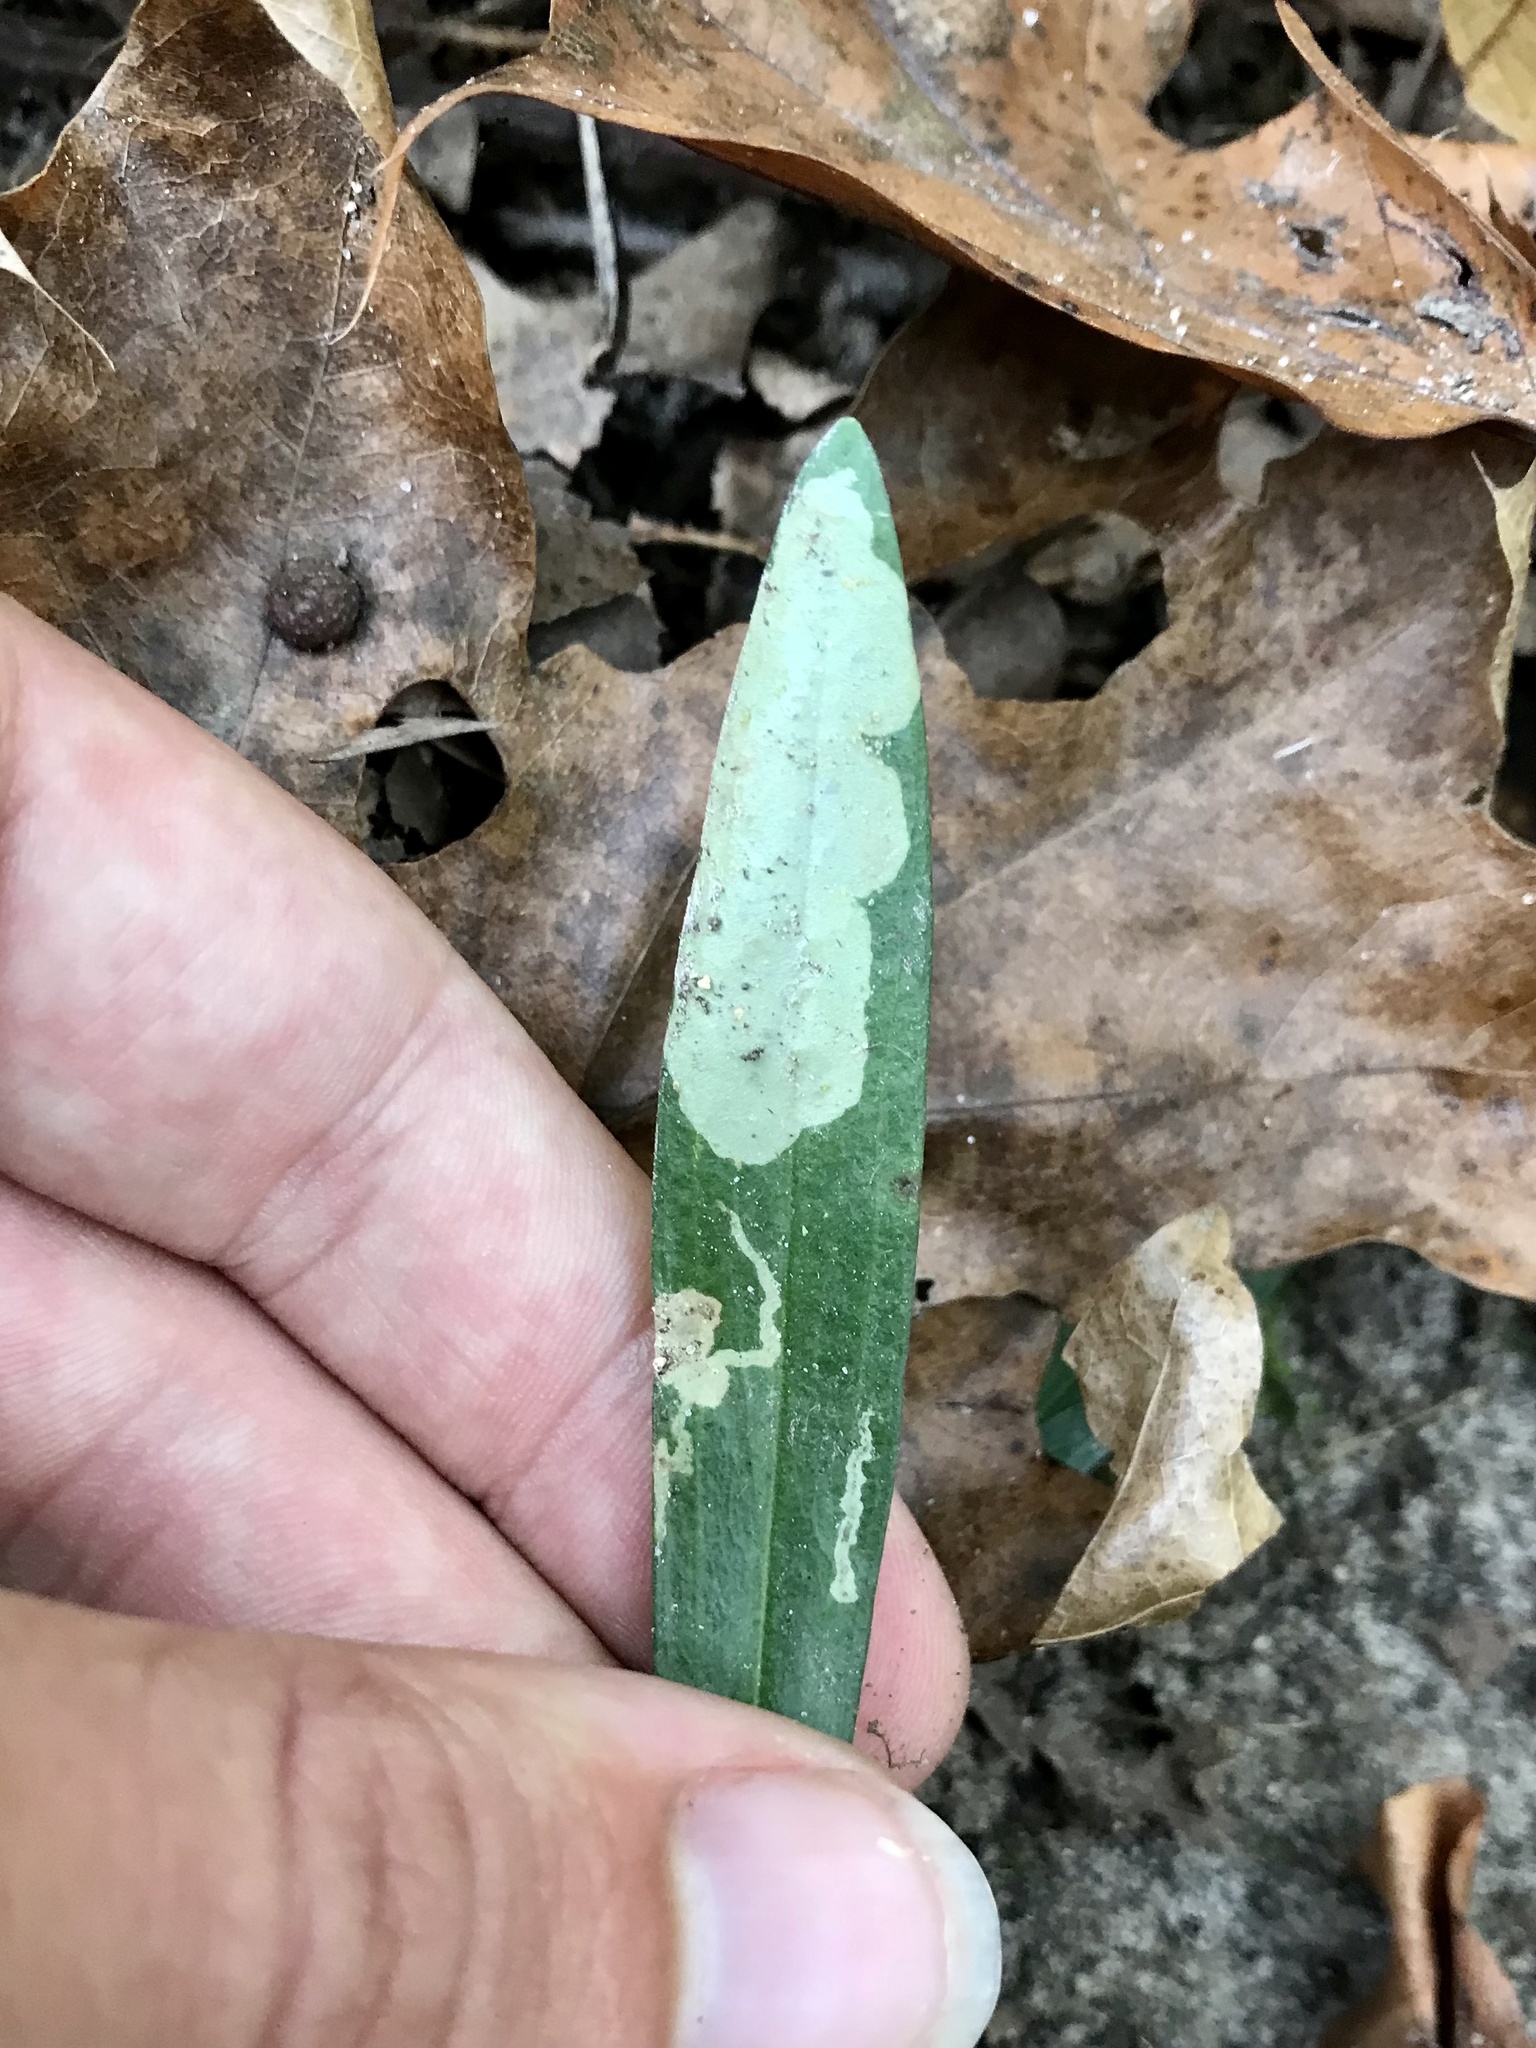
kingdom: Animalia
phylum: Arthropoda
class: Insecta
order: Diptera
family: Agromyzidae
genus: Amauromyza
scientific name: Amauromyza flavifrons
